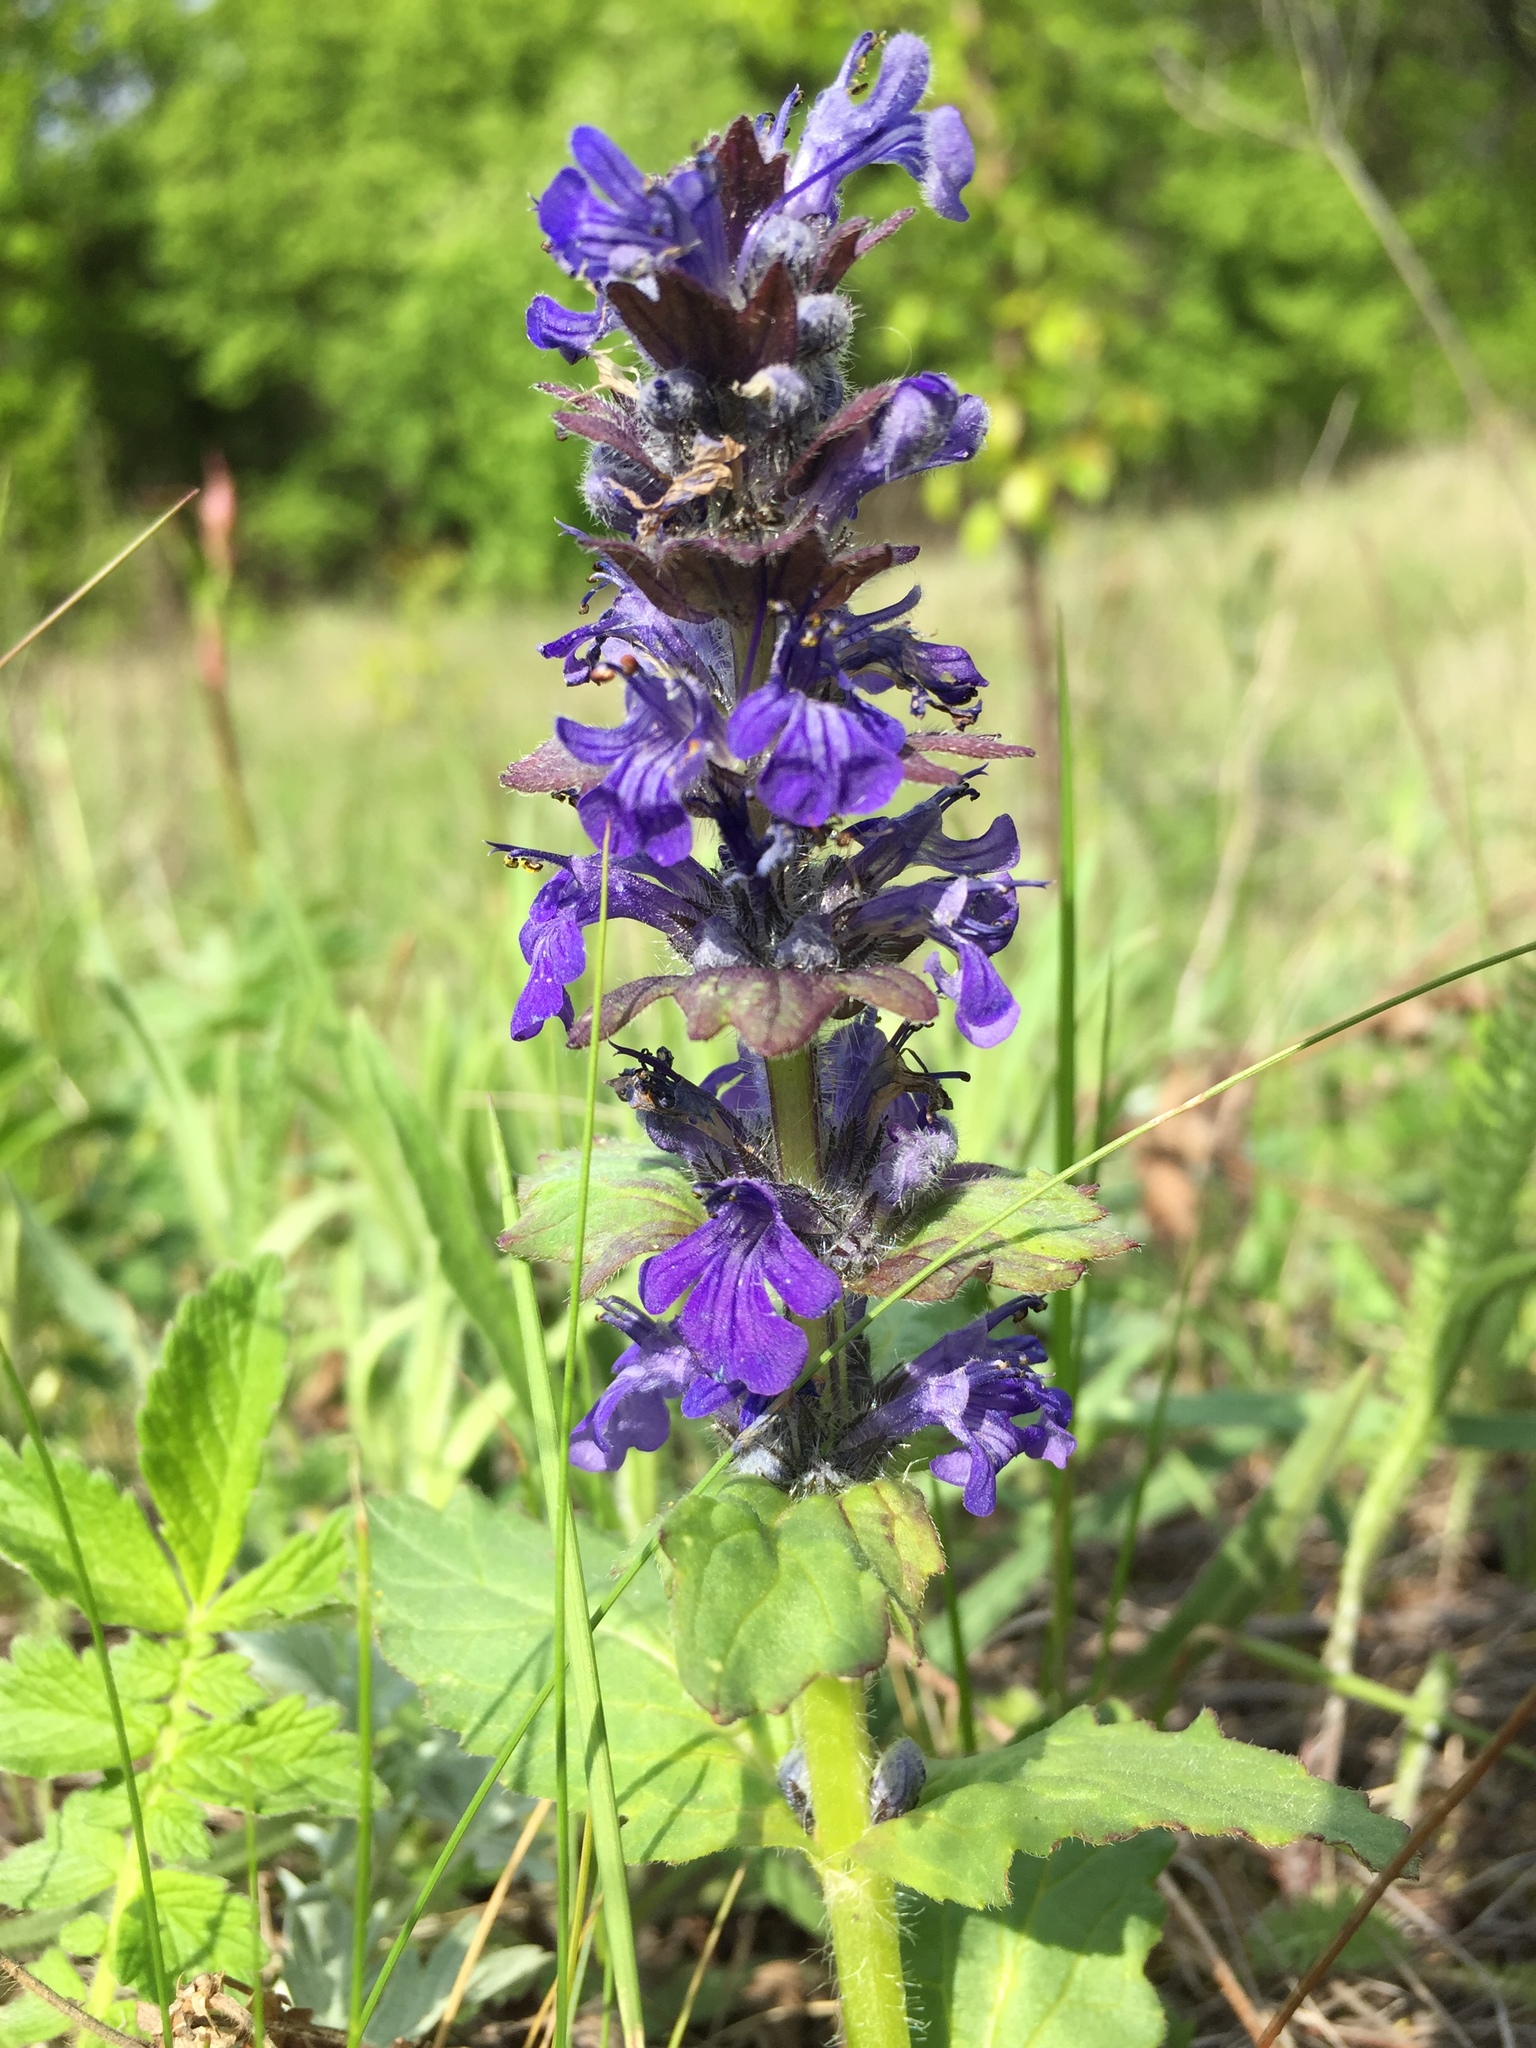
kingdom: Plantae
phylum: Tracheophyta
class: Magnoliopsida
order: Lamiales
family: Lamiaceae
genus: Ajuga
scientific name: Ajuga genevensis
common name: Blue bugle
